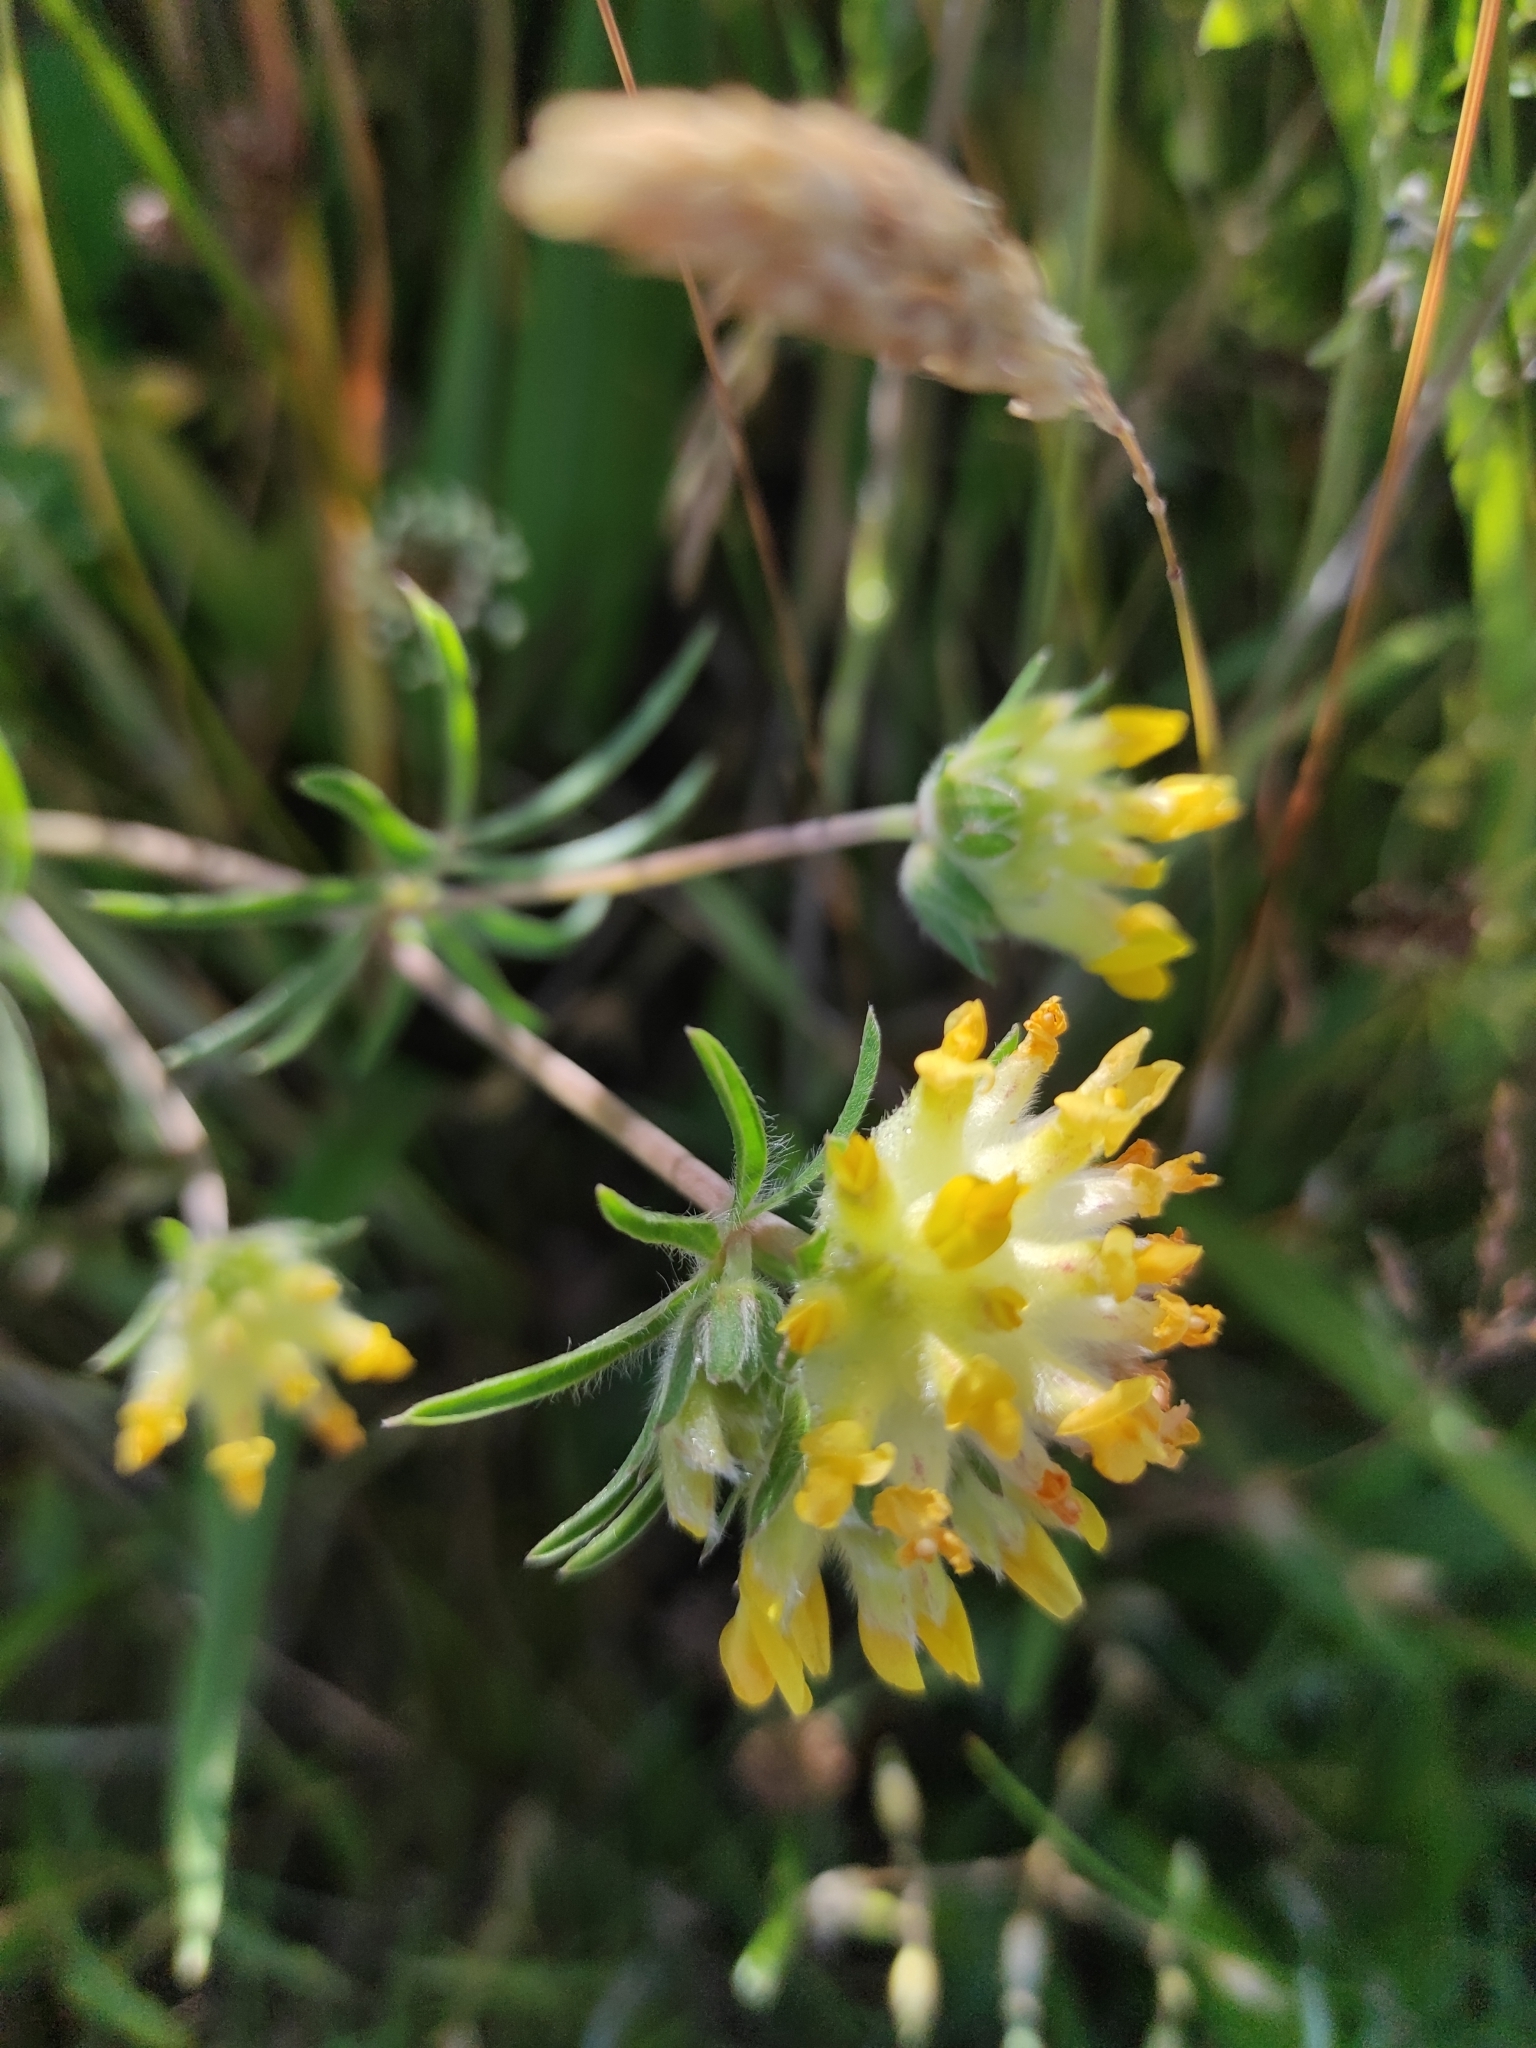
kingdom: Plantae
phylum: Tracheophyta
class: Magnoliopsida
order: Fabales
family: Fabaceae
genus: Anthyllis
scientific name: Anthyllis vulneraria
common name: Kidney vetch
